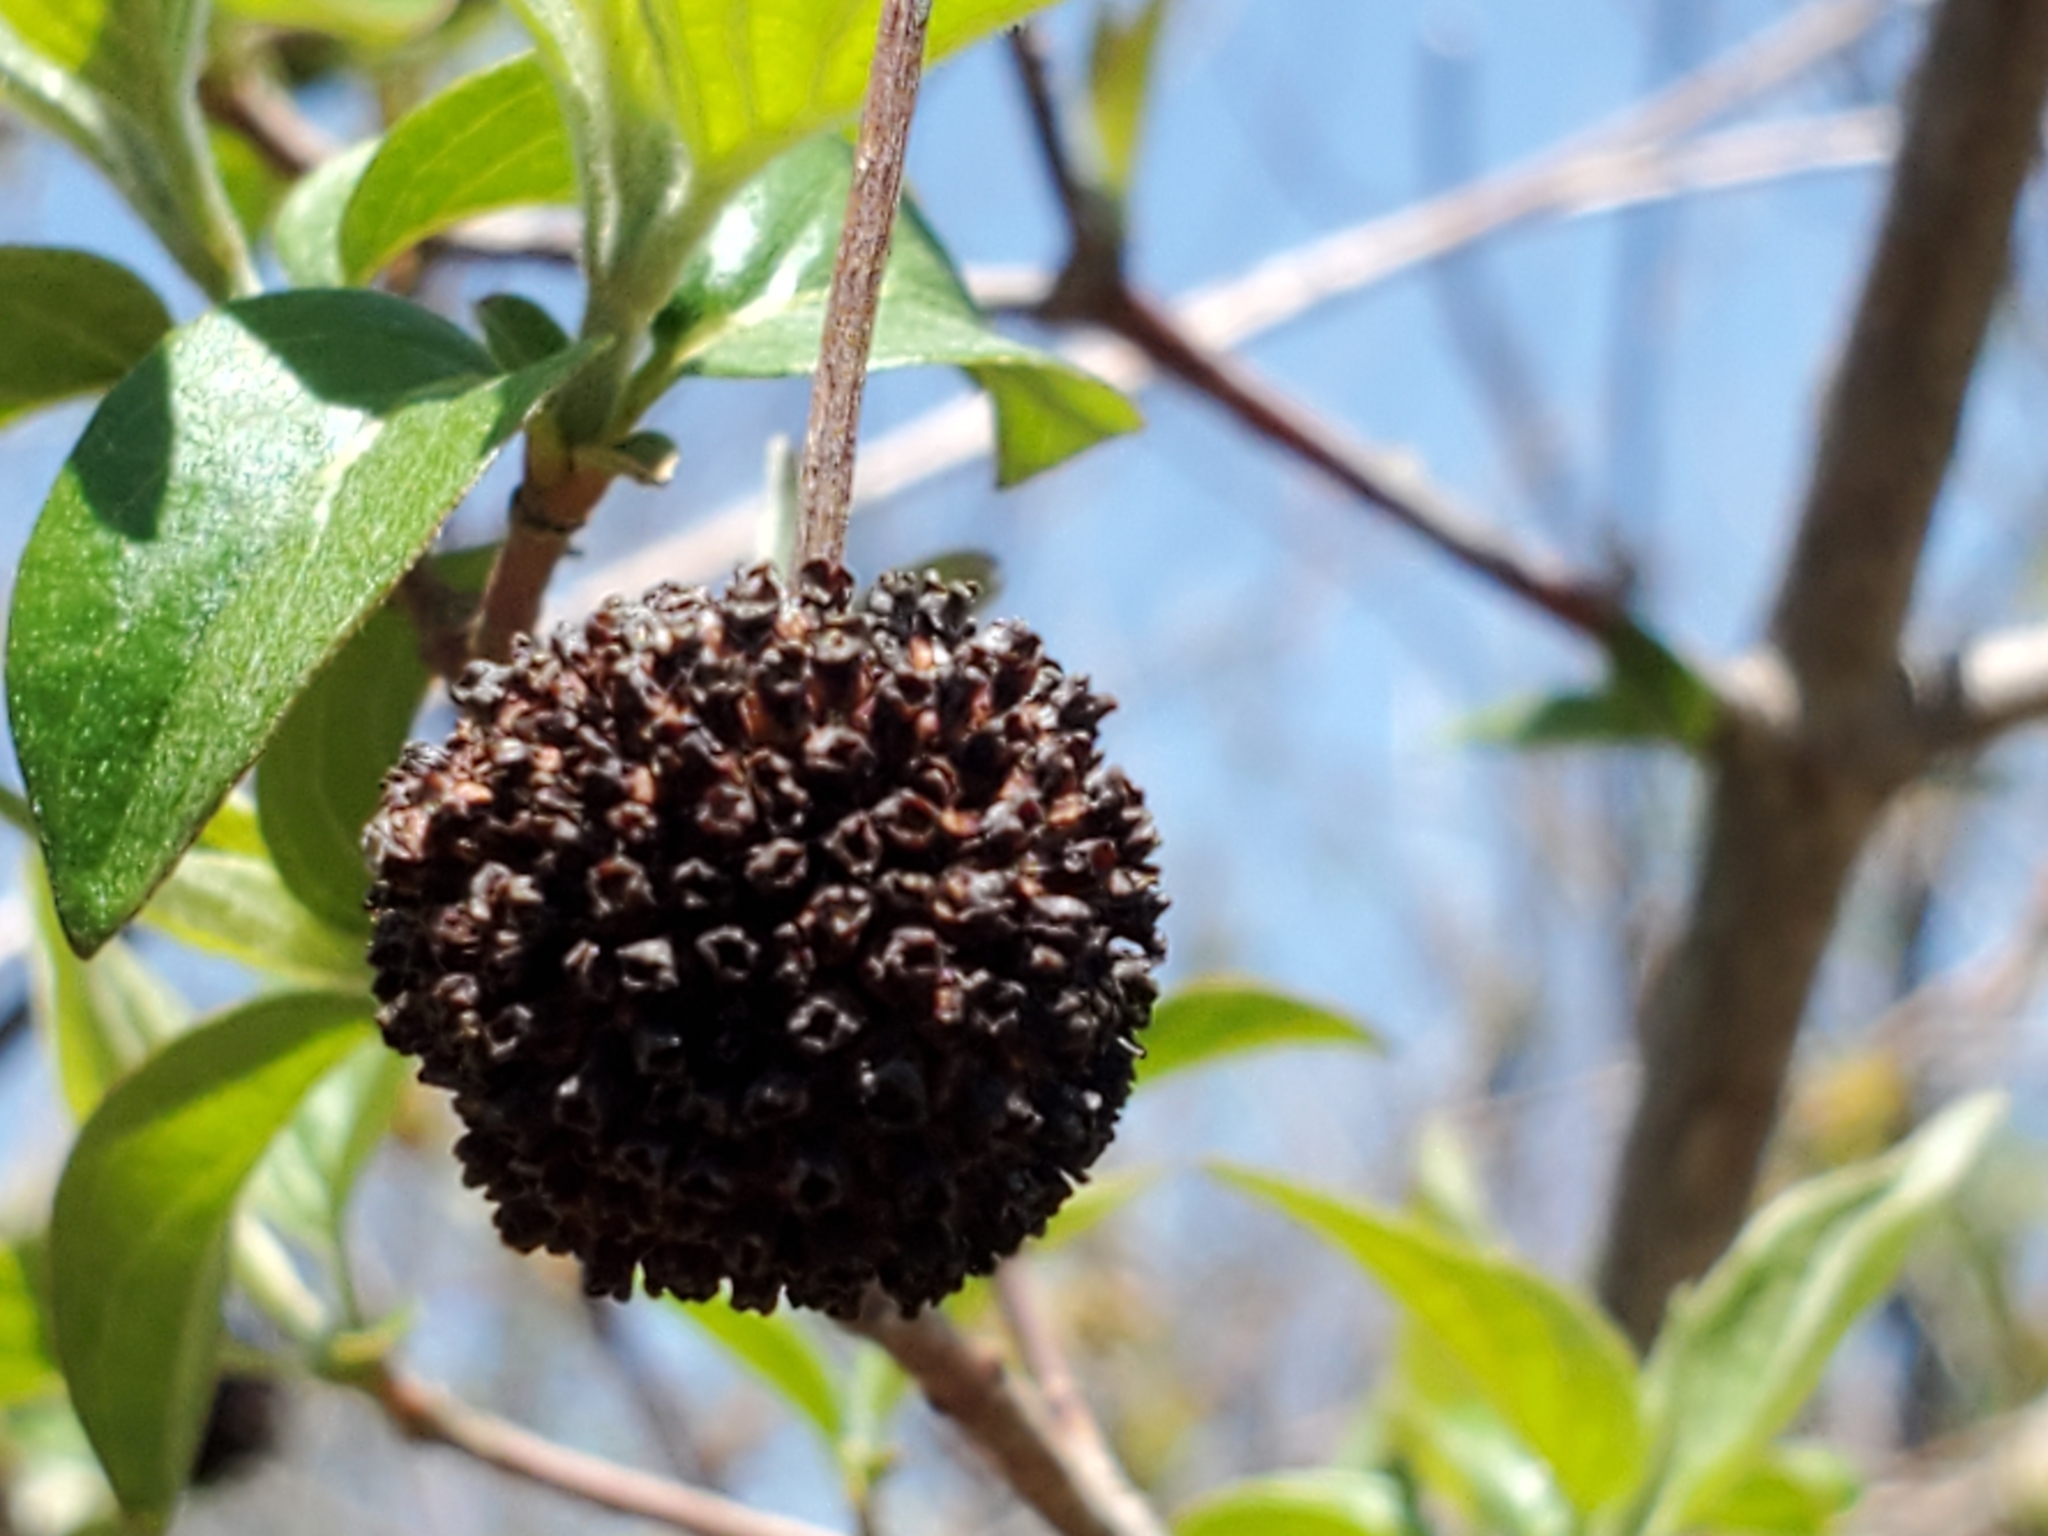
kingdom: Plantae
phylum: Tracheophyta
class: Magnoliopsida
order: Gentianales
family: Rubiaceae
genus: Cephalanthus
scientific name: Cephalanthus occidentalis
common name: Button-willow
